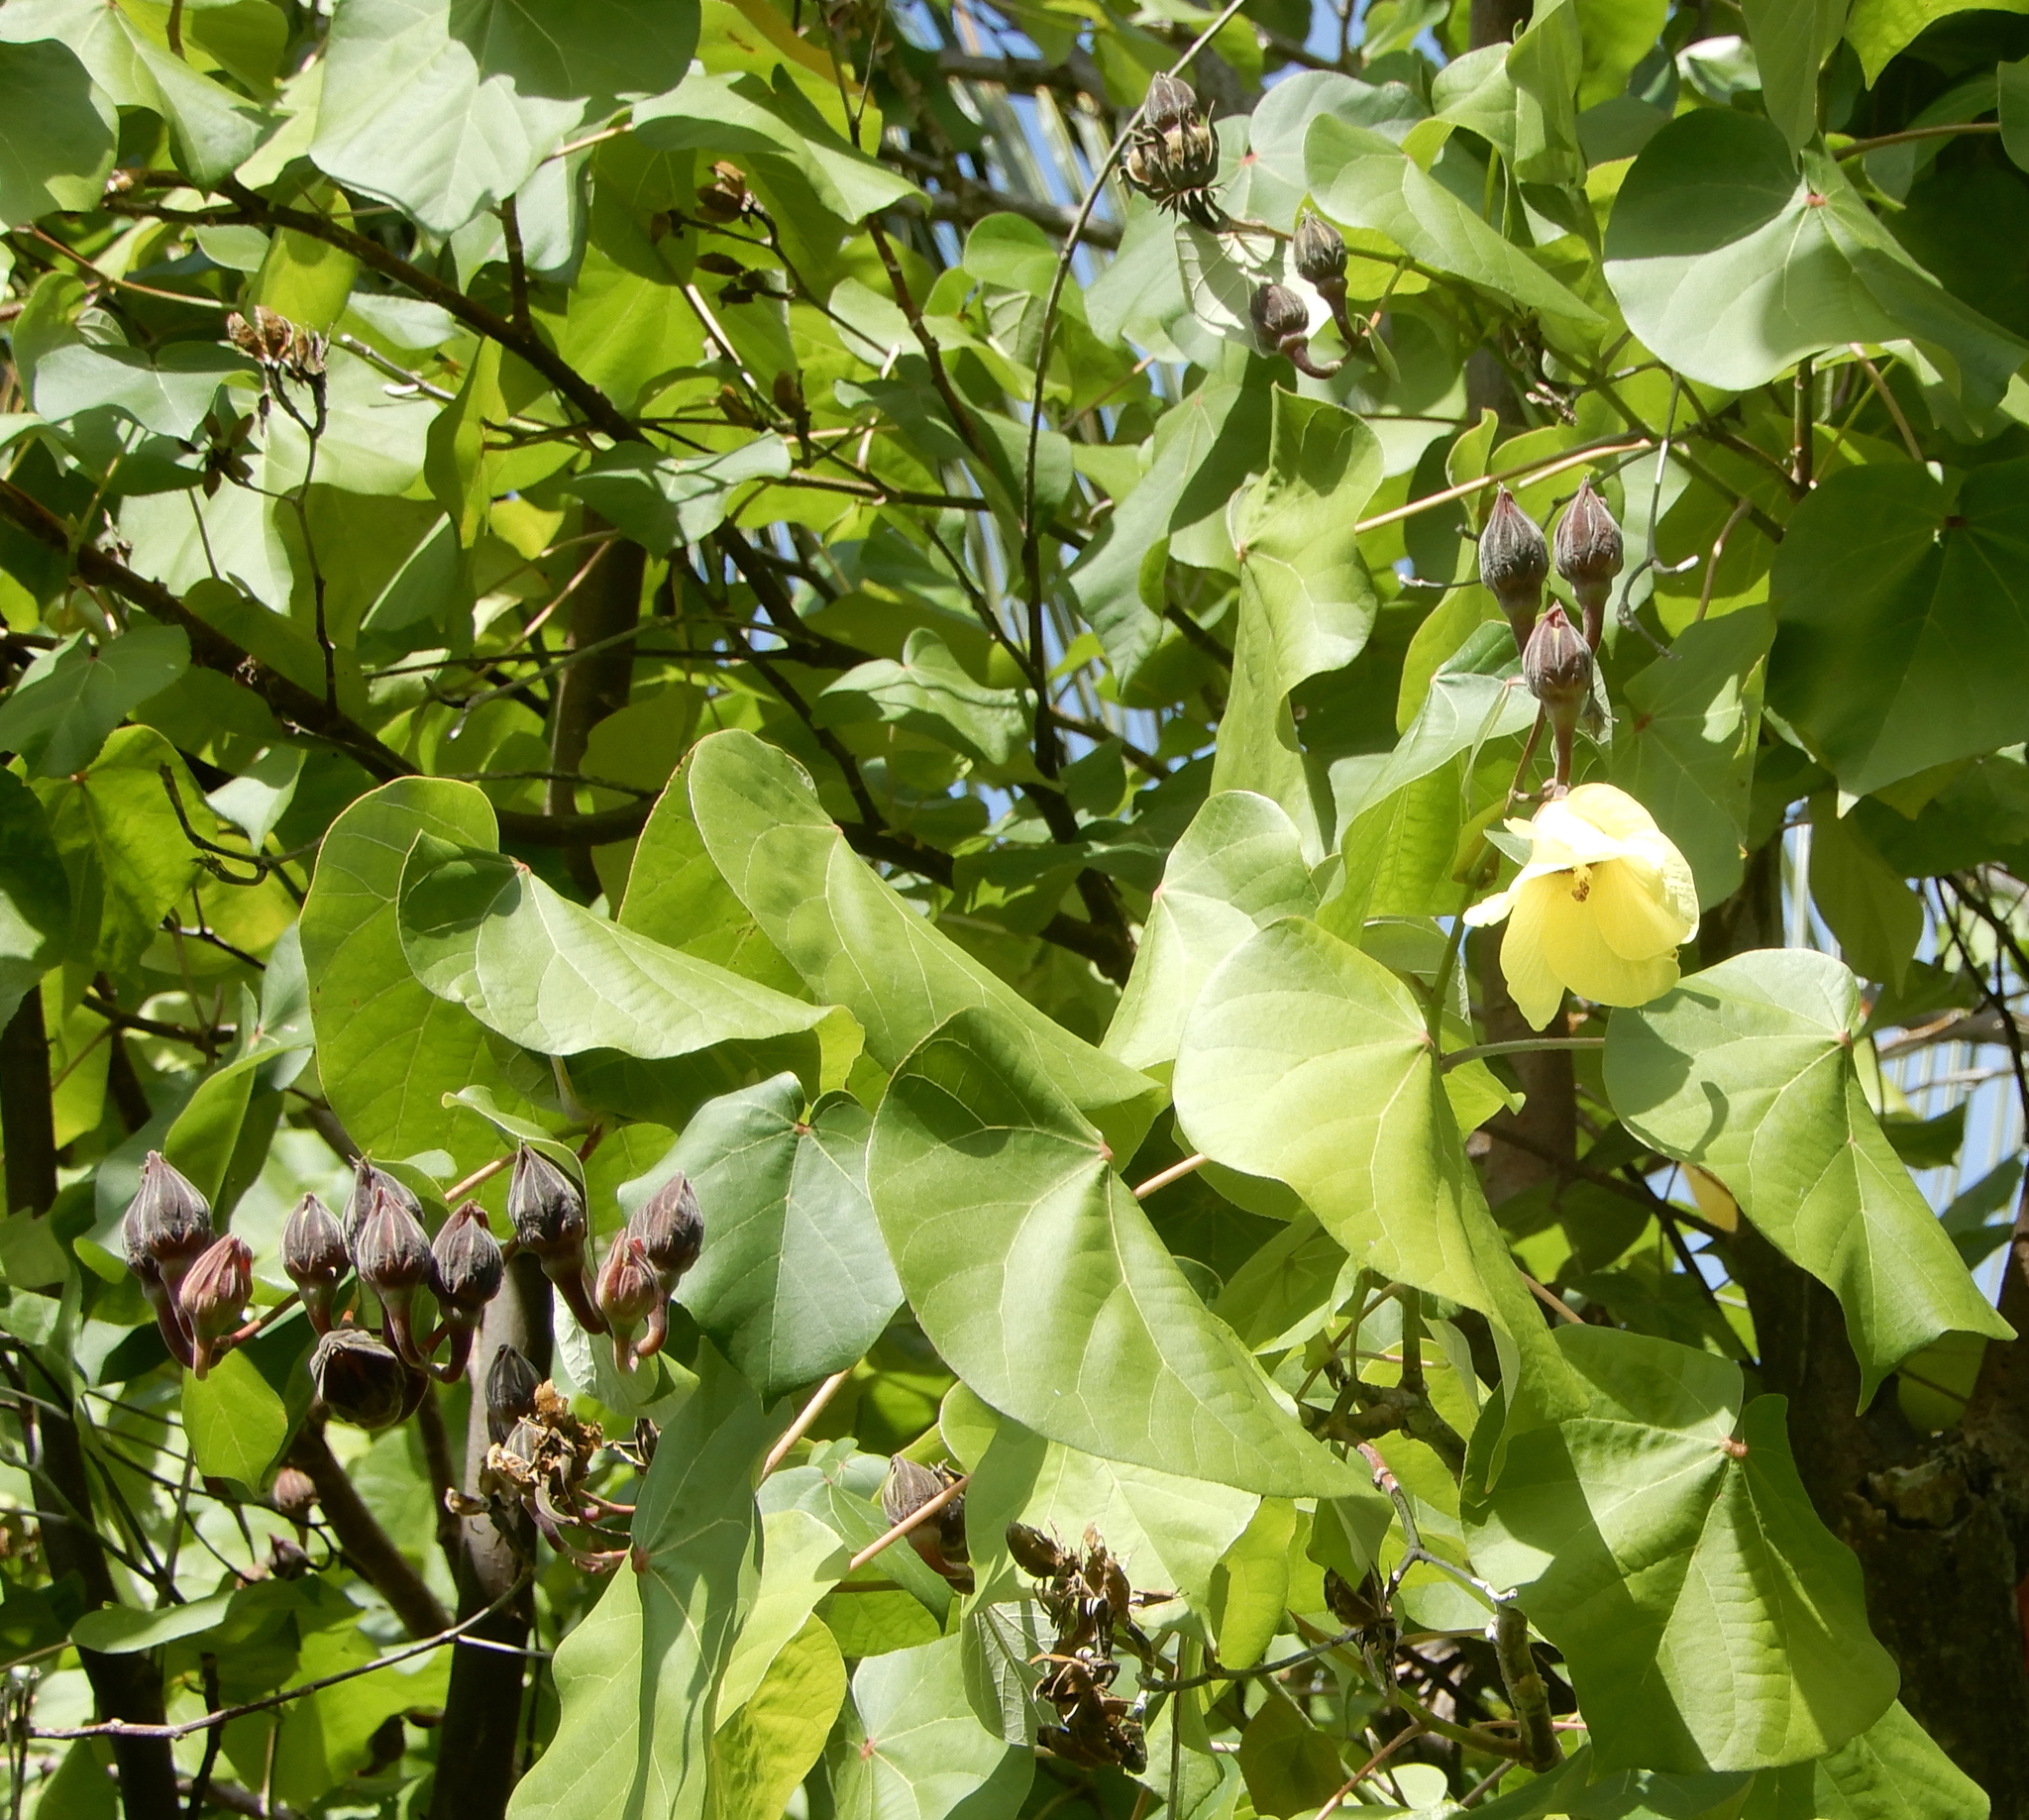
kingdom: Plantae
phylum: Tracheophyta
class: Magnoliopsida
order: Malvales
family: Malvaceae
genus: Thespesia
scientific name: Thespesia populnea
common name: Seaside mahoe
